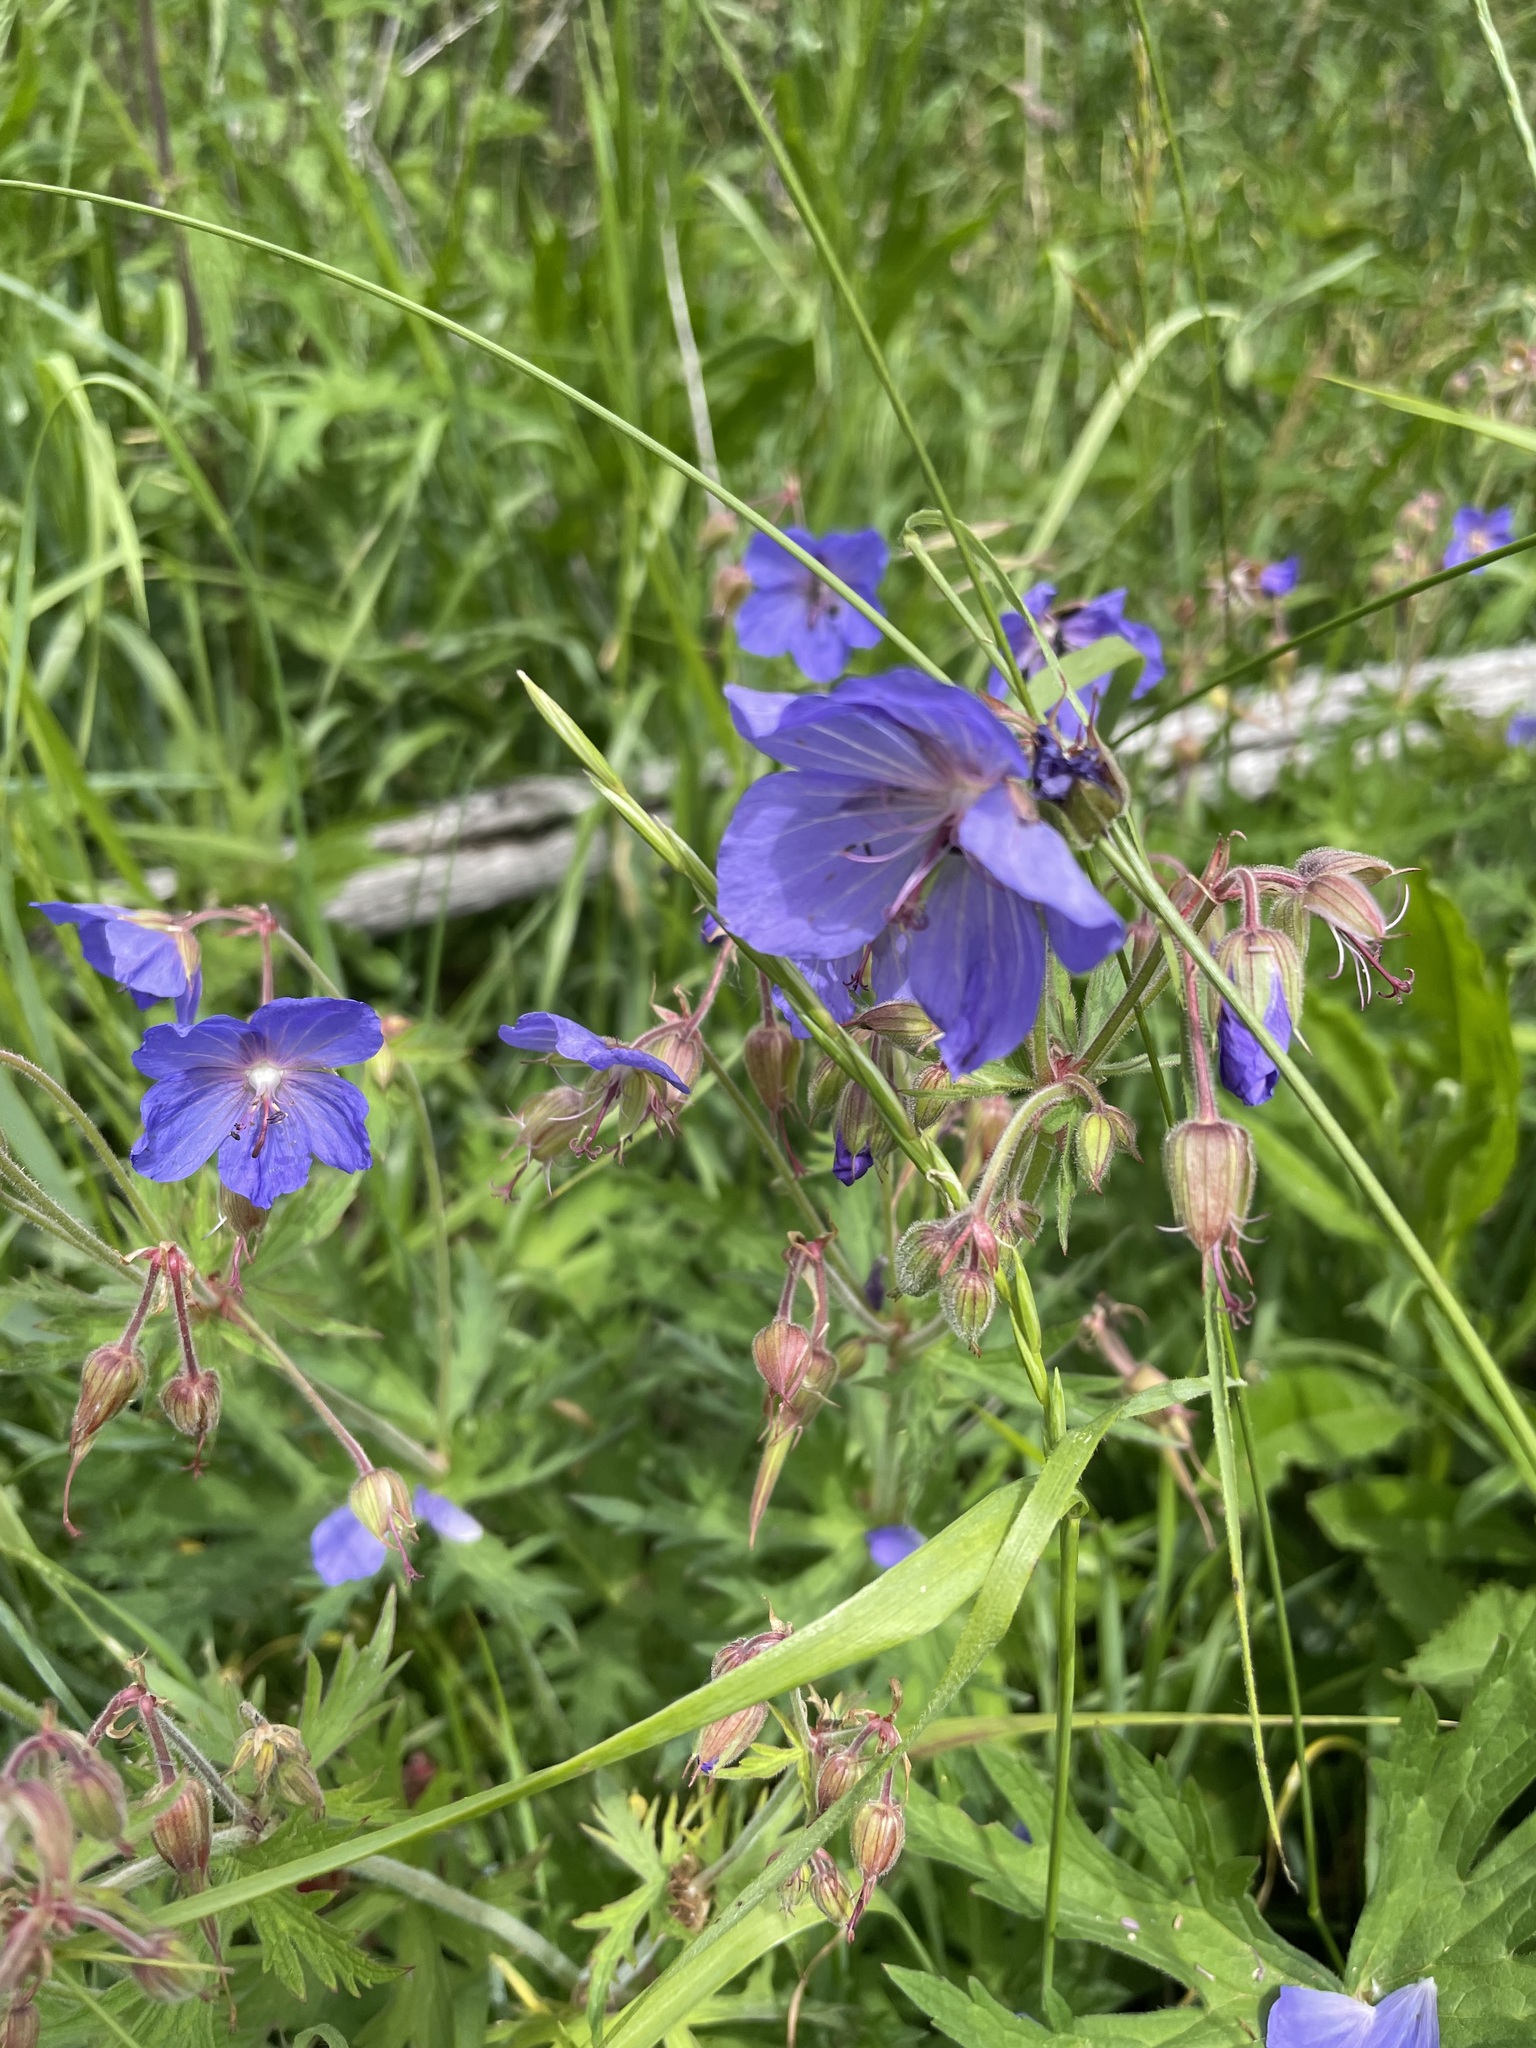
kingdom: Plantae
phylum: Tracheophyta
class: Magnoliopsida
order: Geraniales
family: Geraniaceae
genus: Geranium
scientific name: Geranium pratense
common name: Meadow crane's-bill
